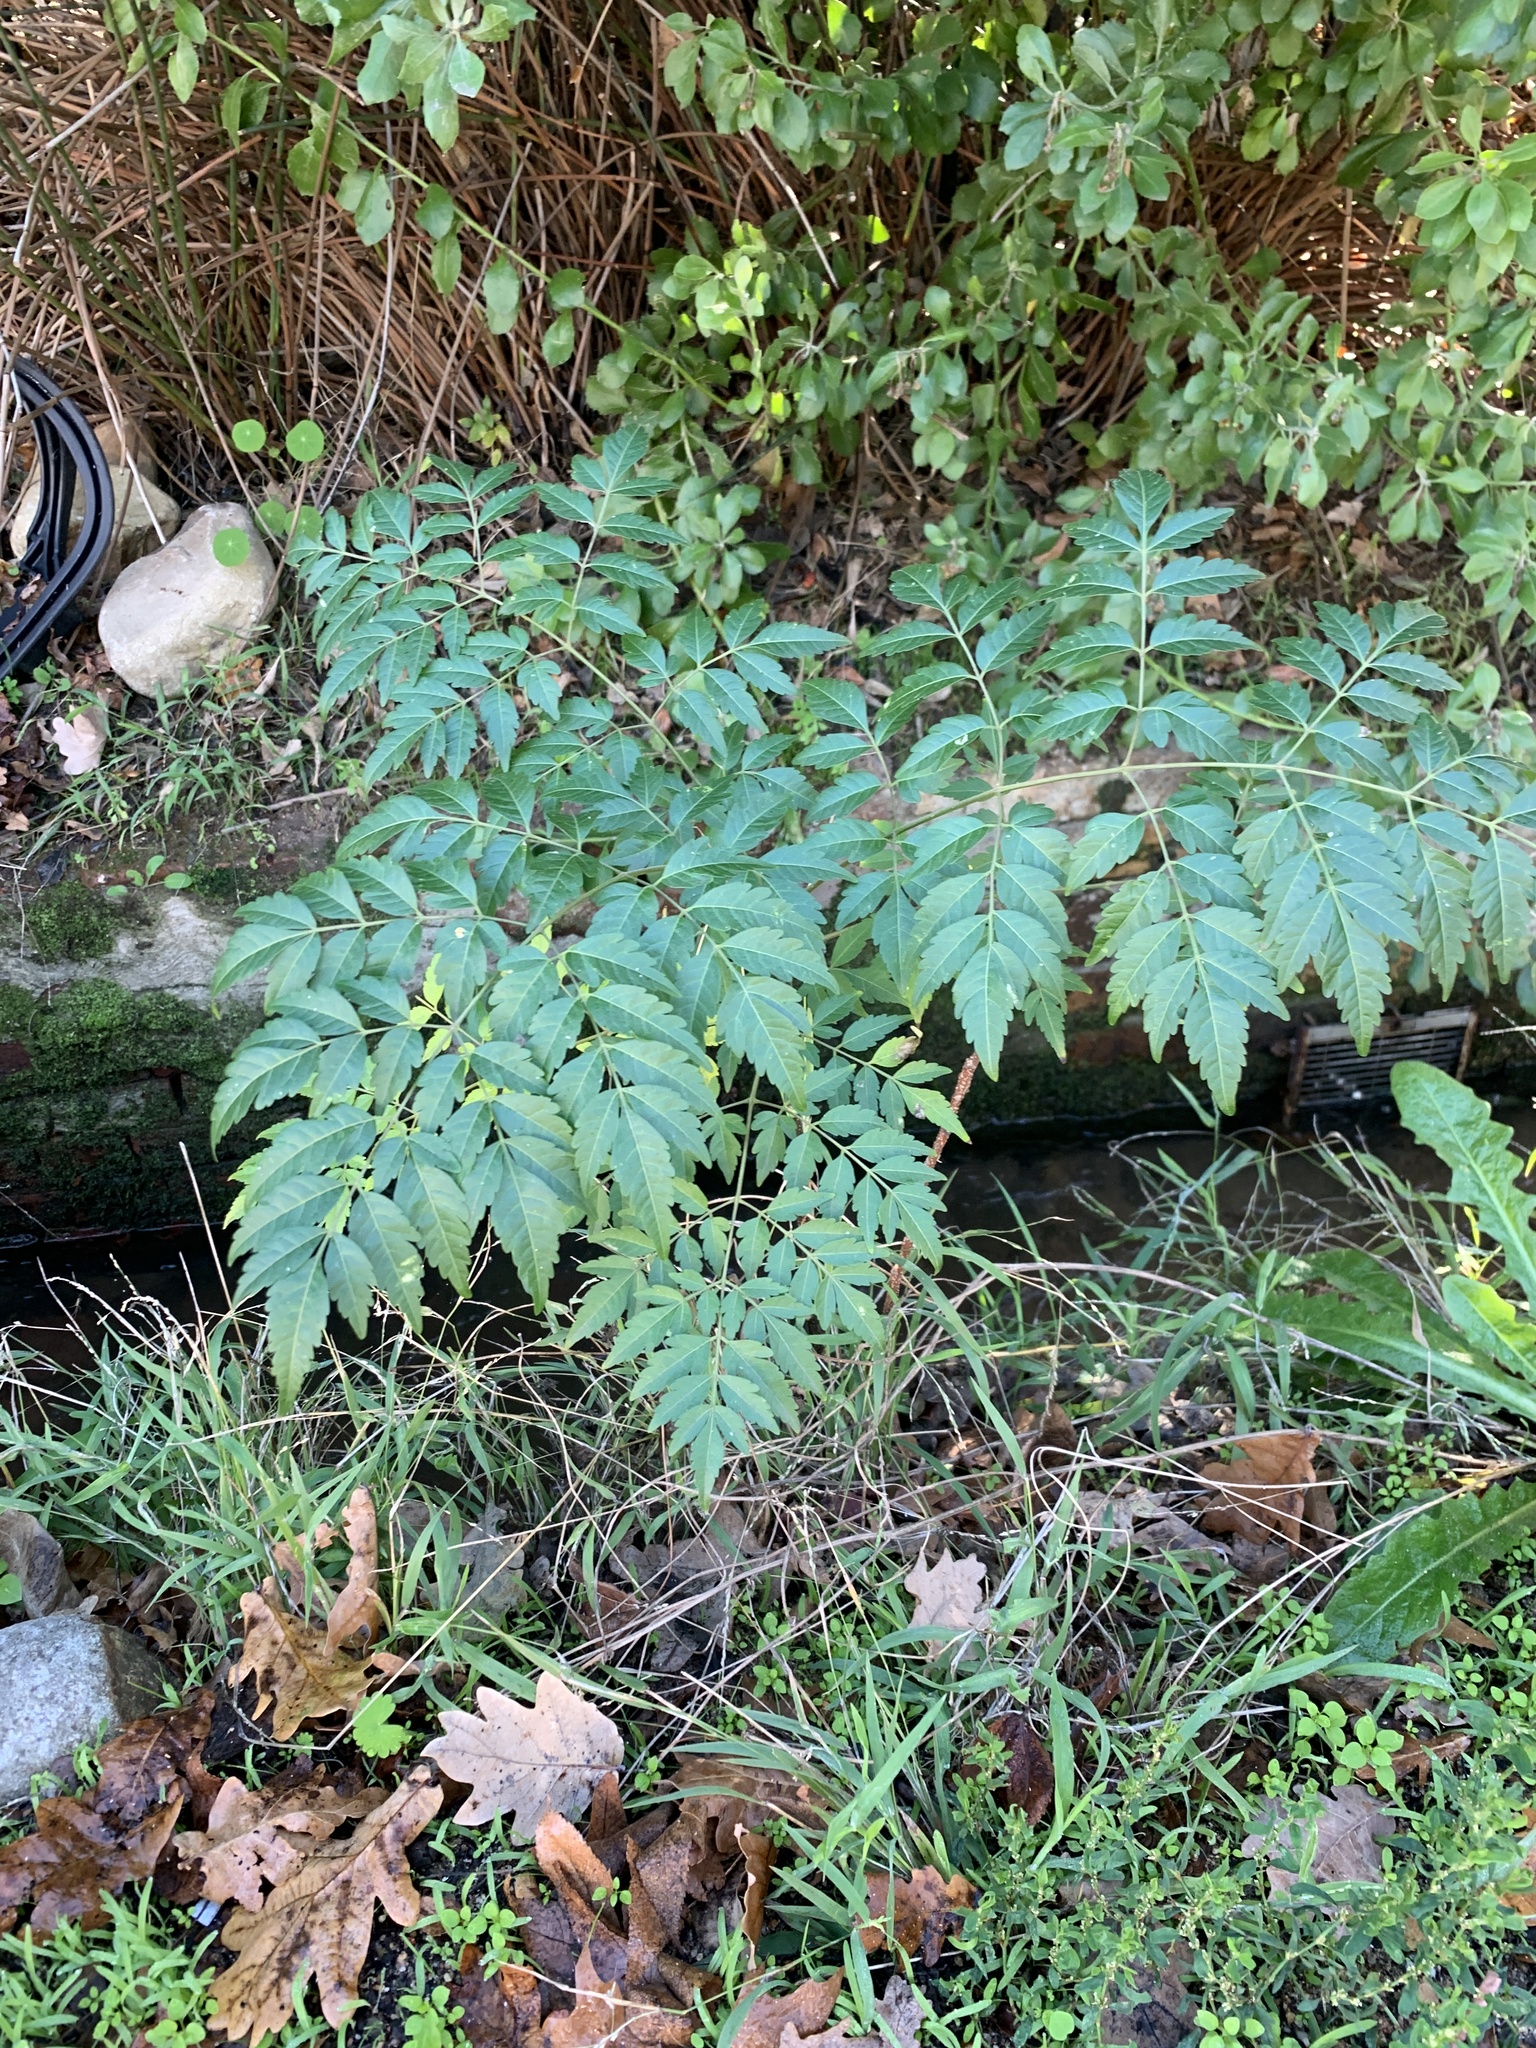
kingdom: Plantae
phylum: Tracheophyta
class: Magnoliopsida
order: Sapindales
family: Meliaceae
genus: Melia
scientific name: Melia azedarach
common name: Chinaberrytree
